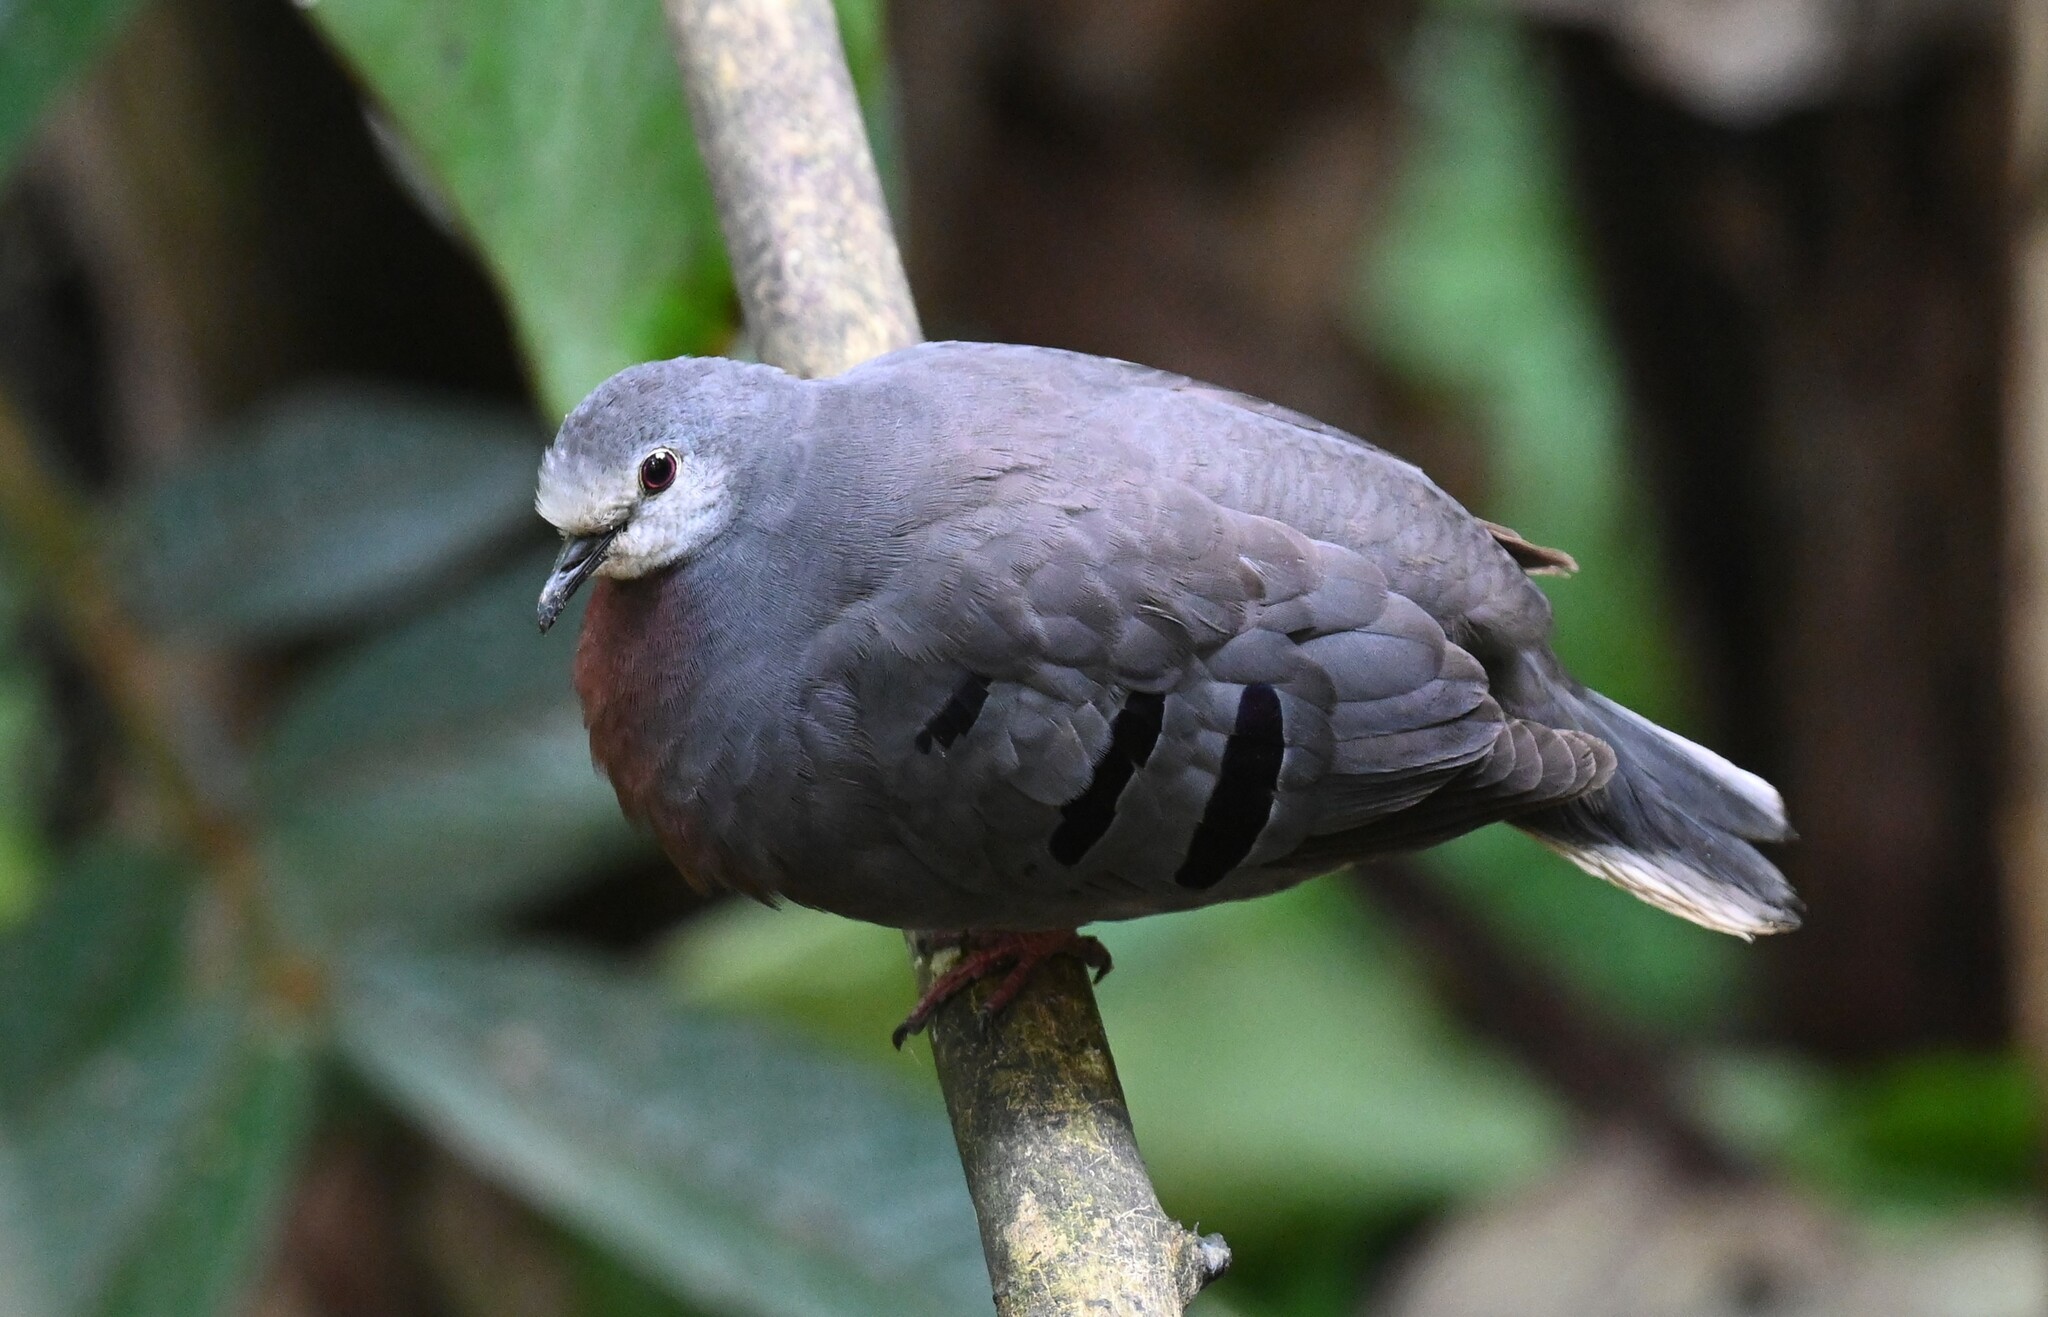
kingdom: Animalia
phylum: Chordata
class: Aves
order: Columbiformes
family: Columbidae
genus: Claravis
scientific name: Claravis mondetoura
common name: Maroon-chested ground-dove
